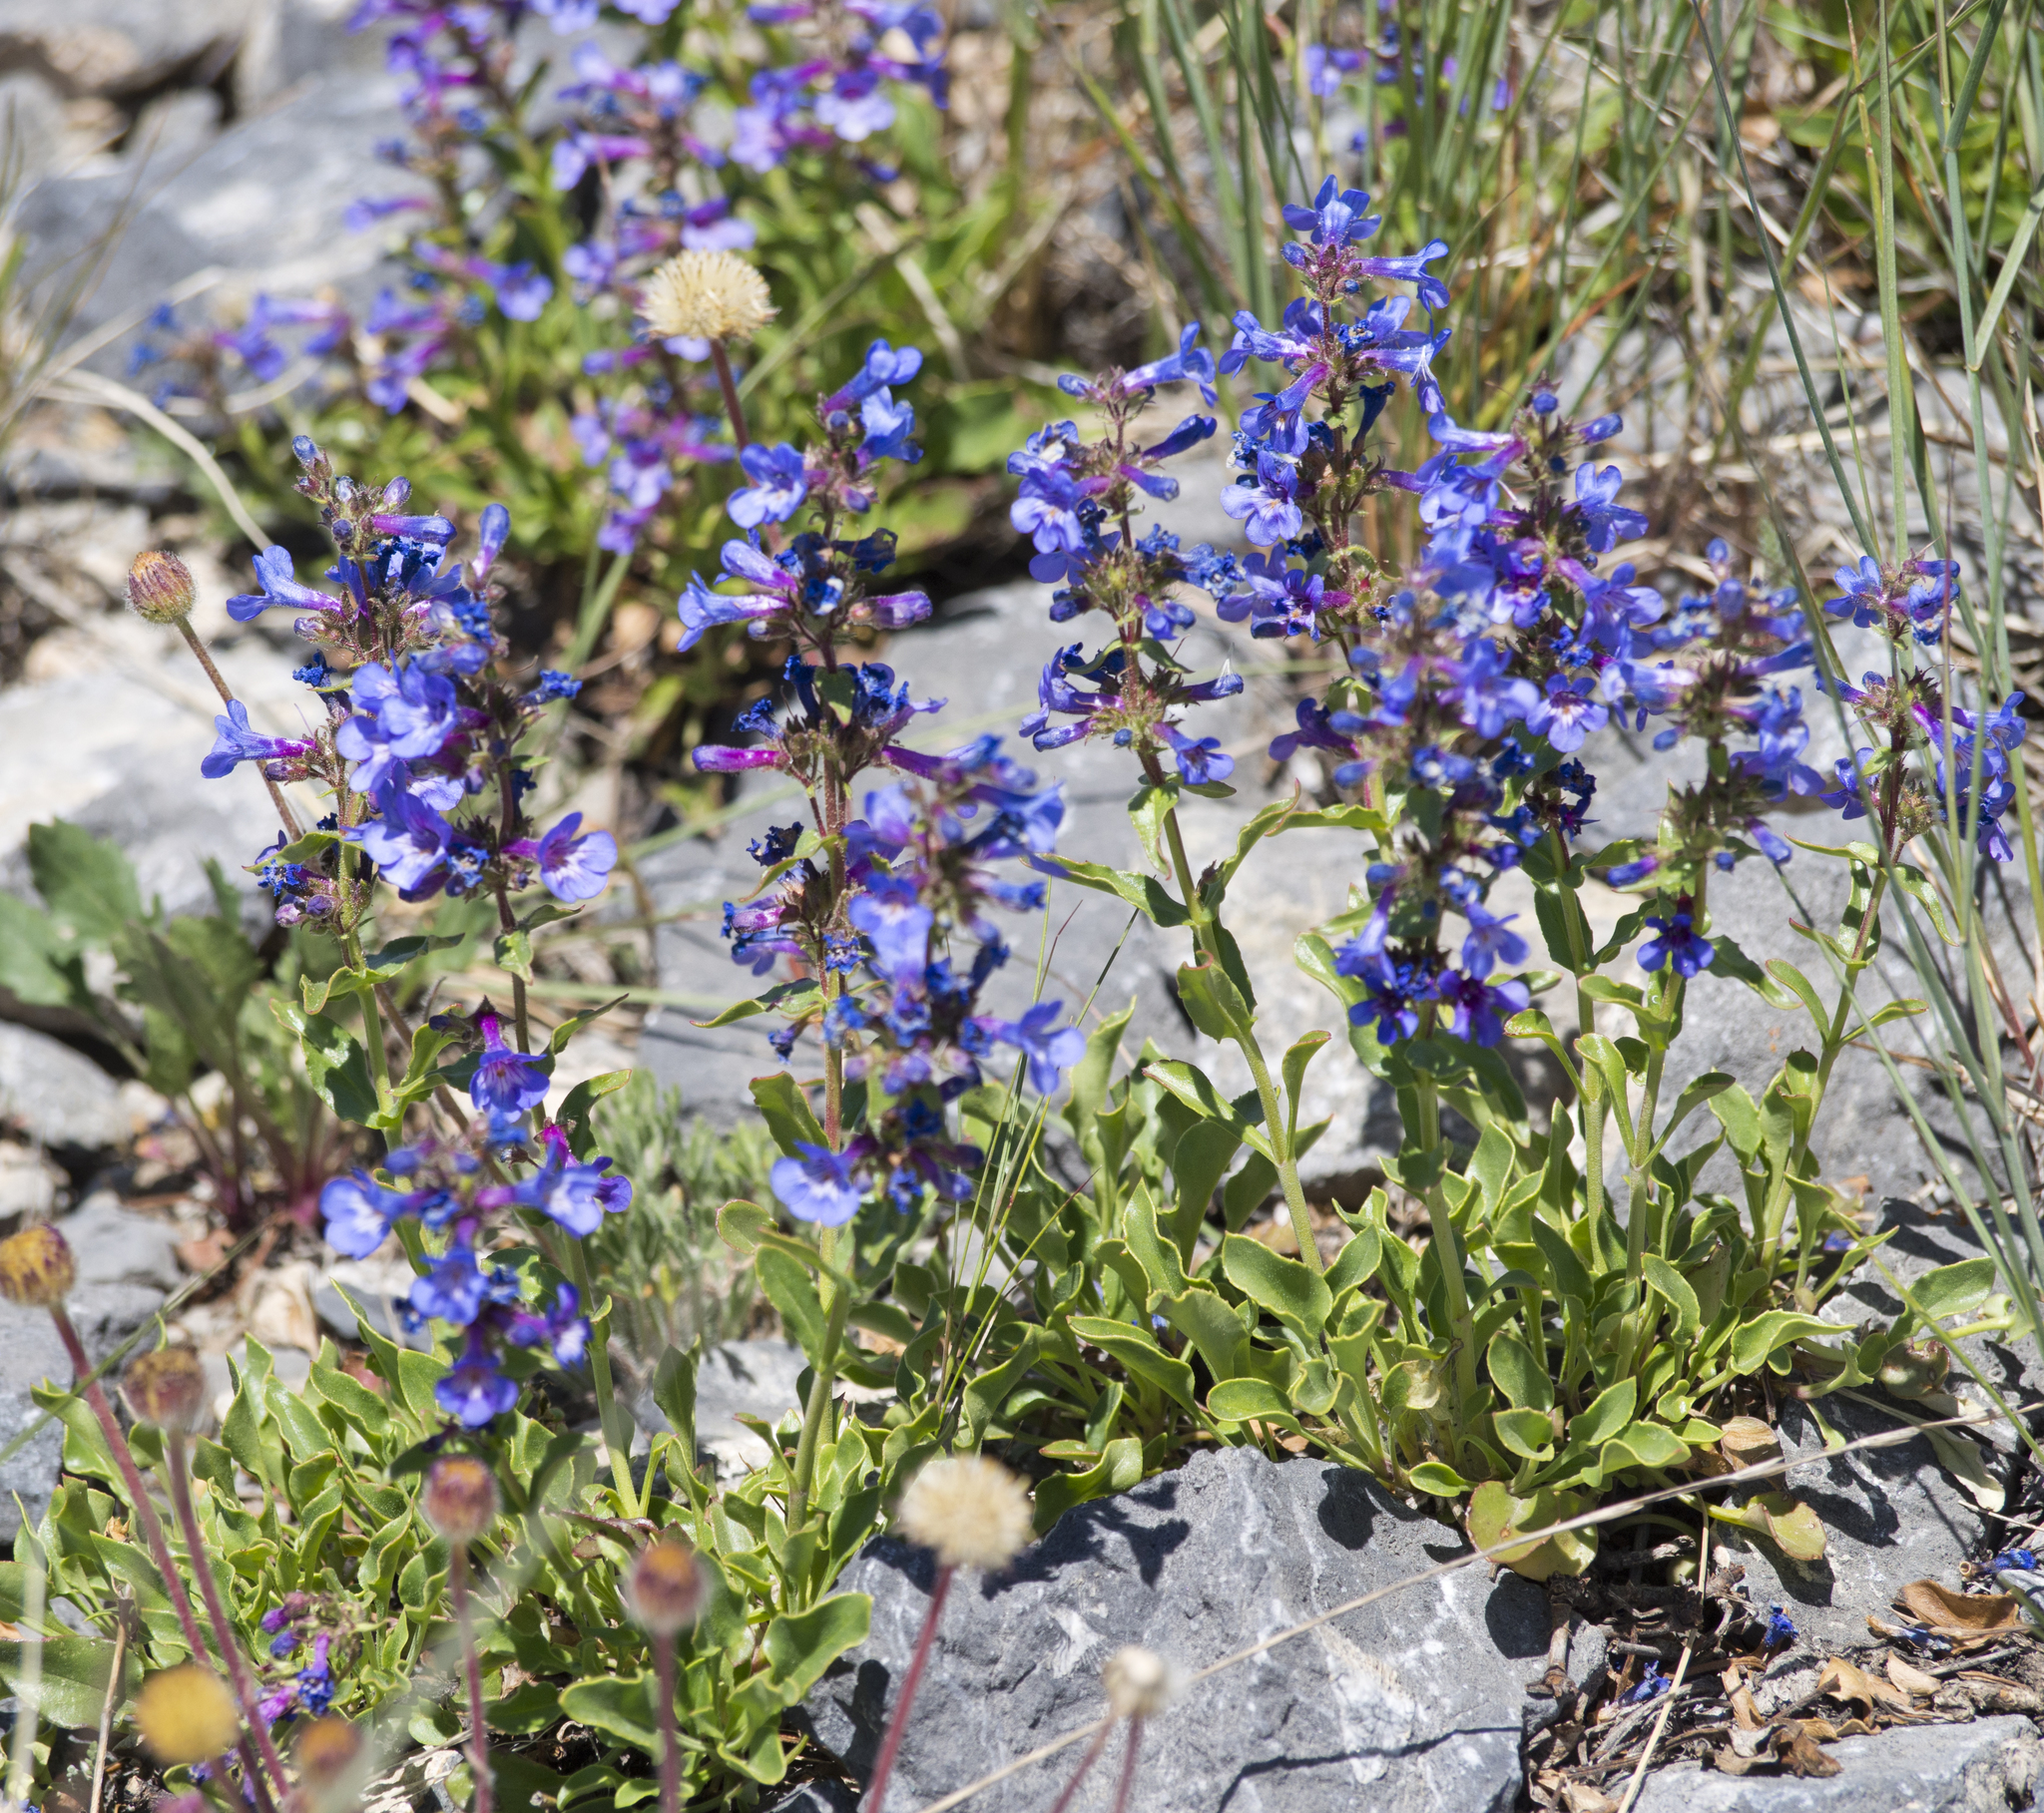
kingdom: Plantae
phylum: Tracheophyta
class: Magnoliopsida
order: Lamiales
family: Plantaginaceae
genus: Penstemon
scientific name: Penstemon humilis
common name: Low penstemon
